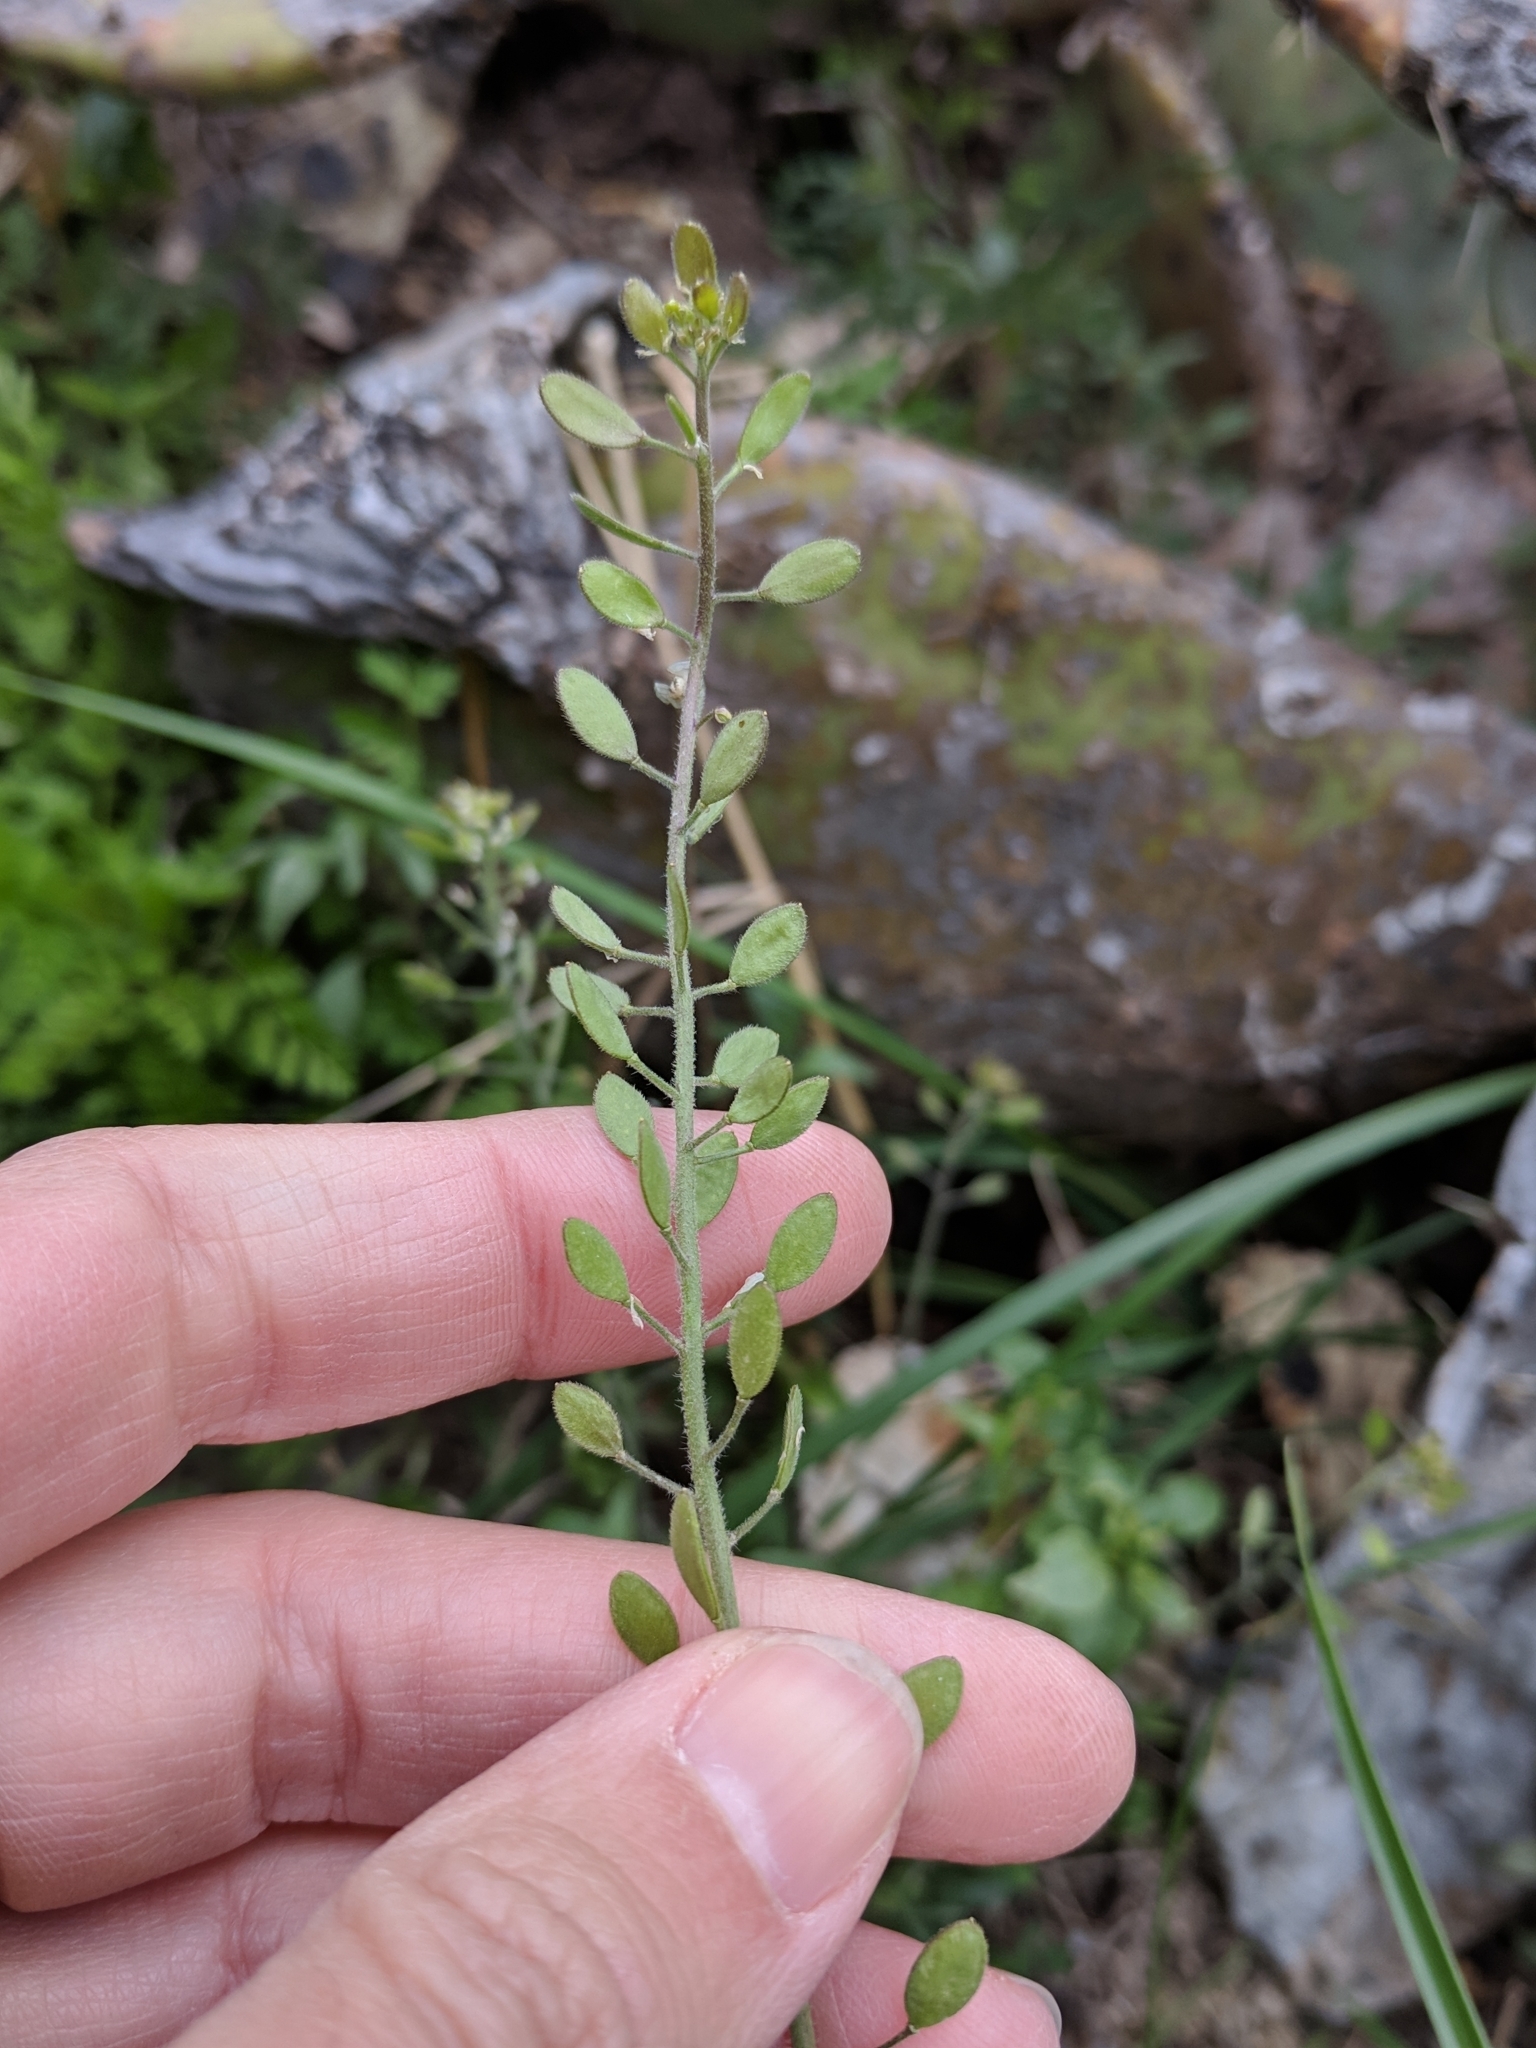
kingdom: Plantae
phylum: Tracheophyta
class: Magnoliopsida
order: Brassicales
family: Brassicaceae
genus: Tomostima
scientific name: Tomostima platycarpa
